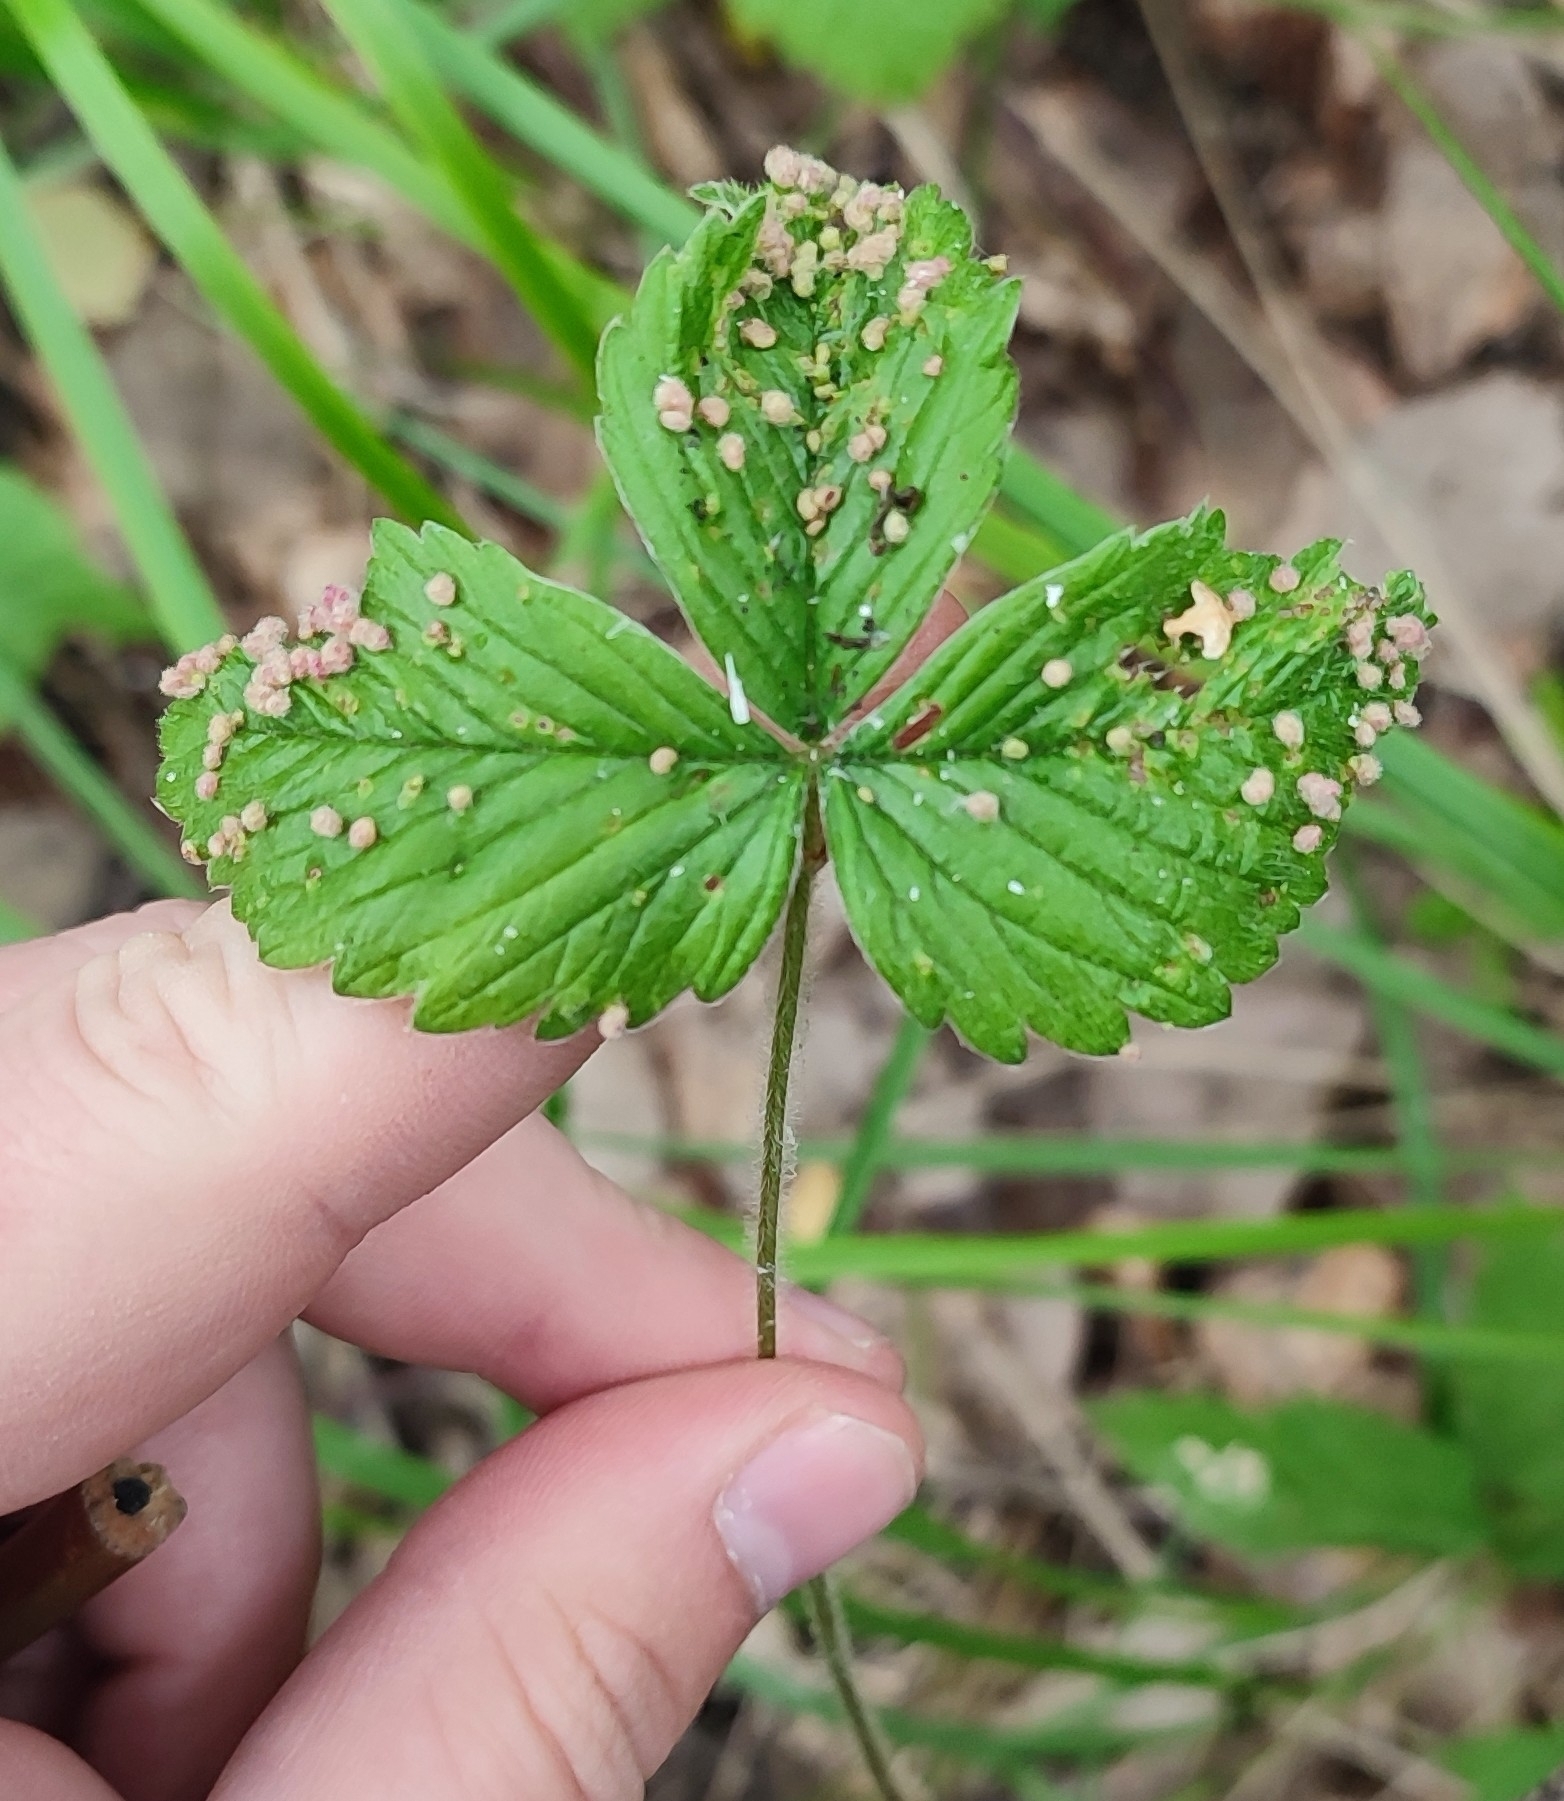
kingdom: Plantae
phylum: Tracheophyta
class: Magnoliopsida
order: Rosales
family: Rosaceae
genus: Fragaria
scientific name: Fragaria viridis
